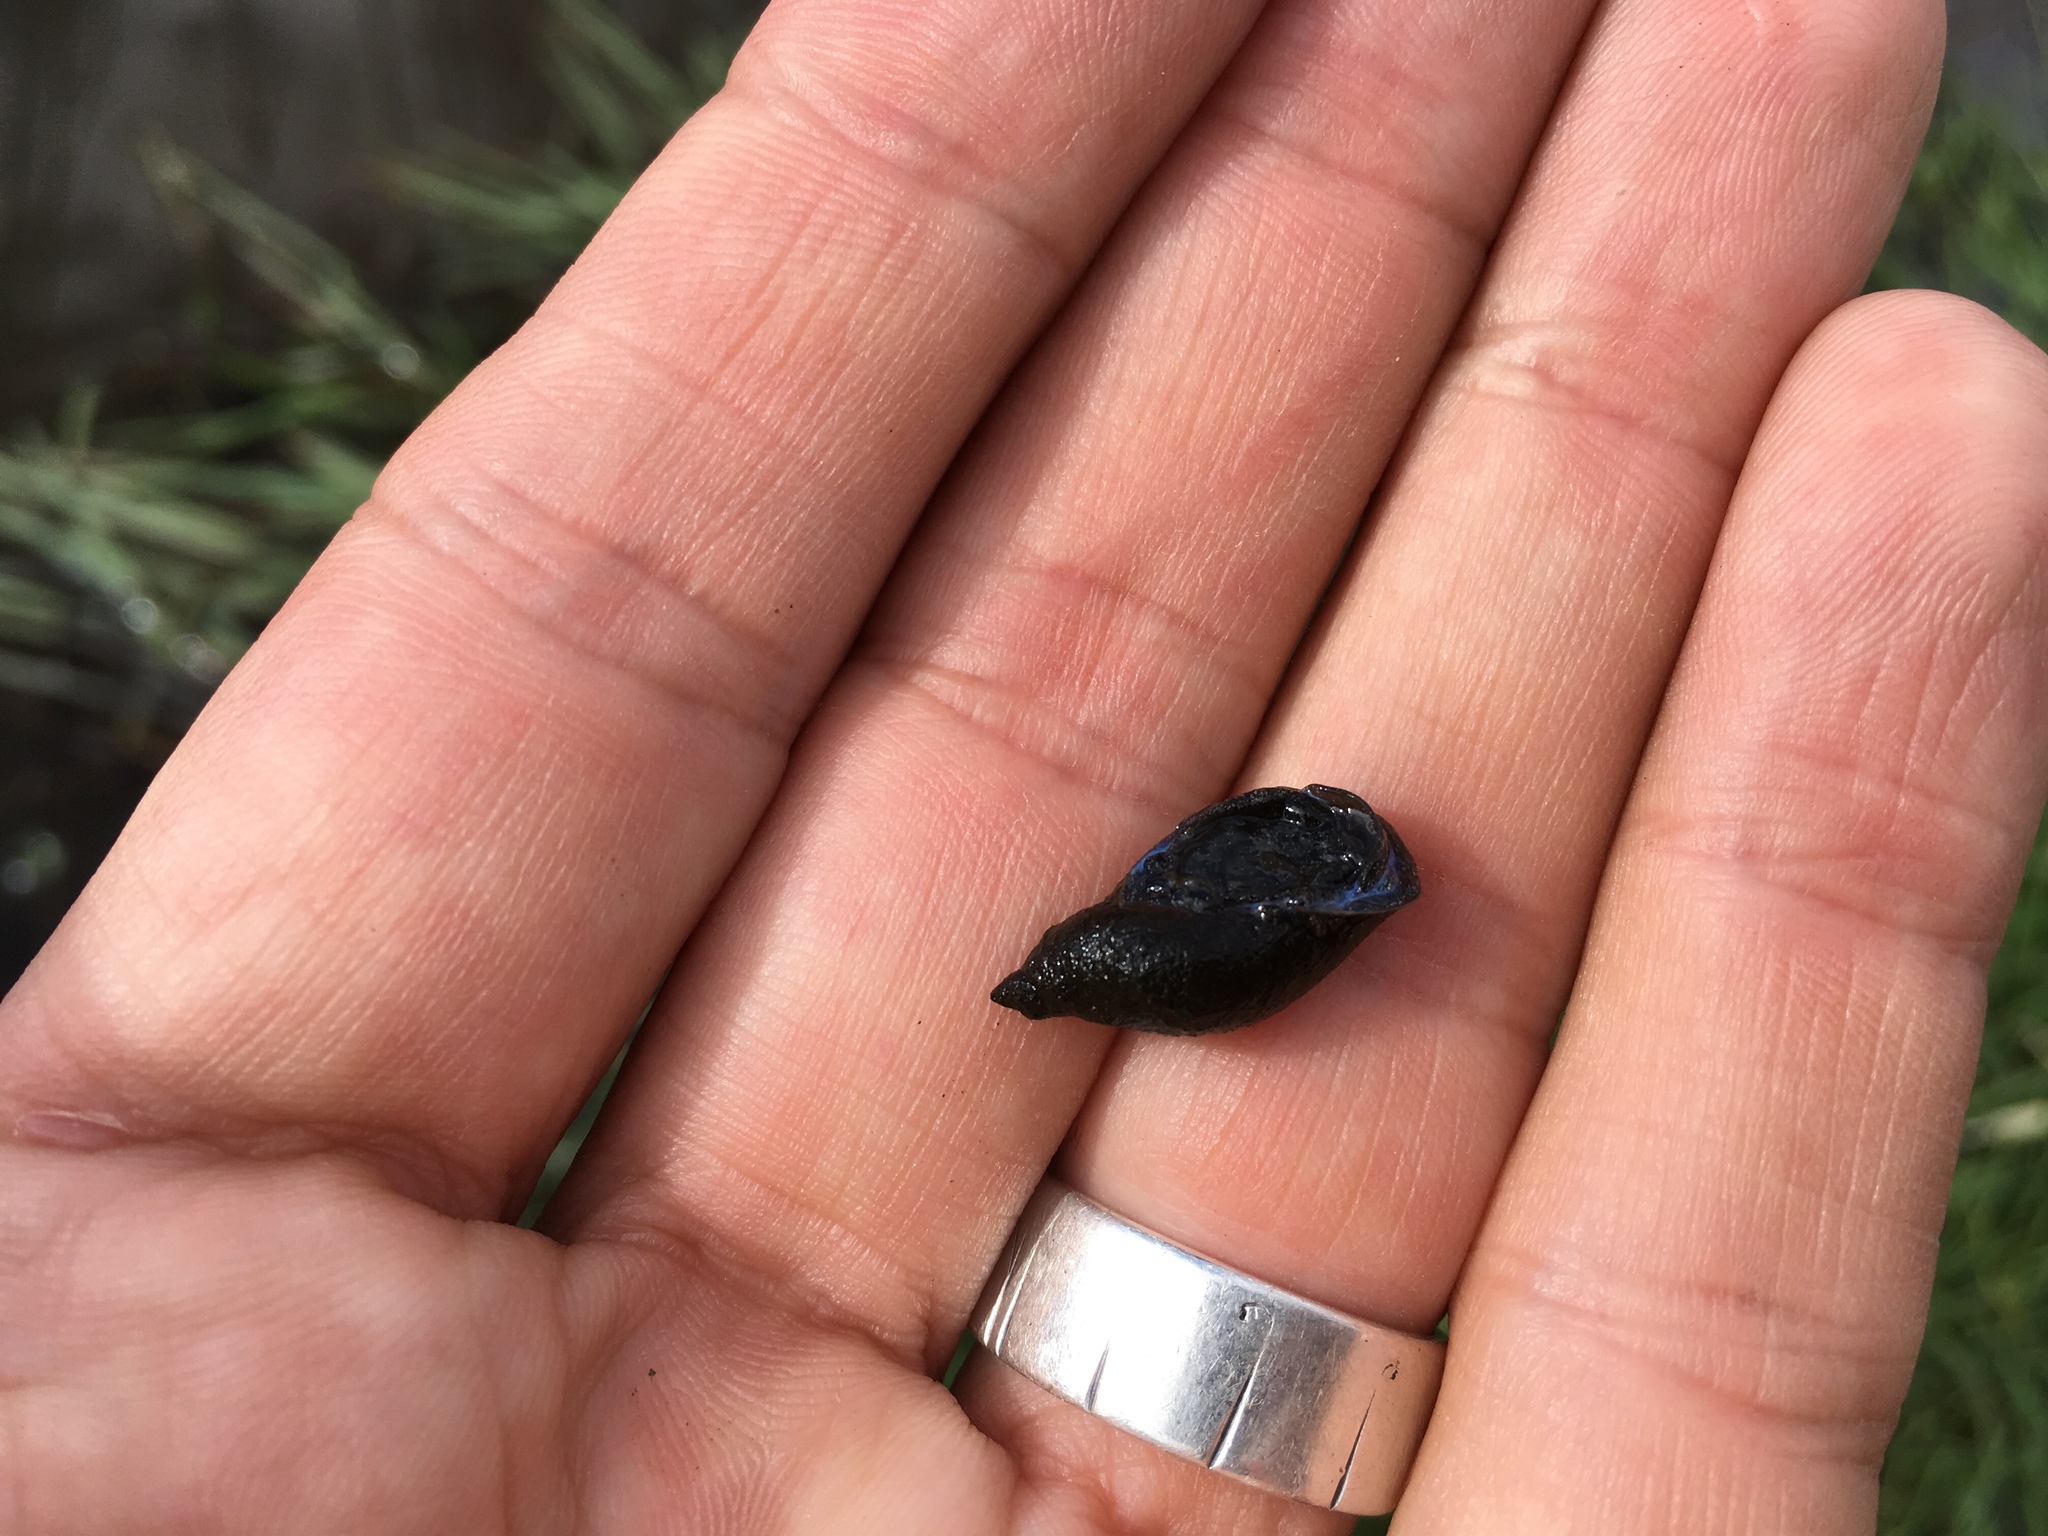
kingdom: Animalia
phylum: Mollusca
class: Gastropoda
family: Lymnaeidae
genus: Pseudosuccinea
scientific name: Pseudosuccinea columella
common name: Mimic lymnaea
